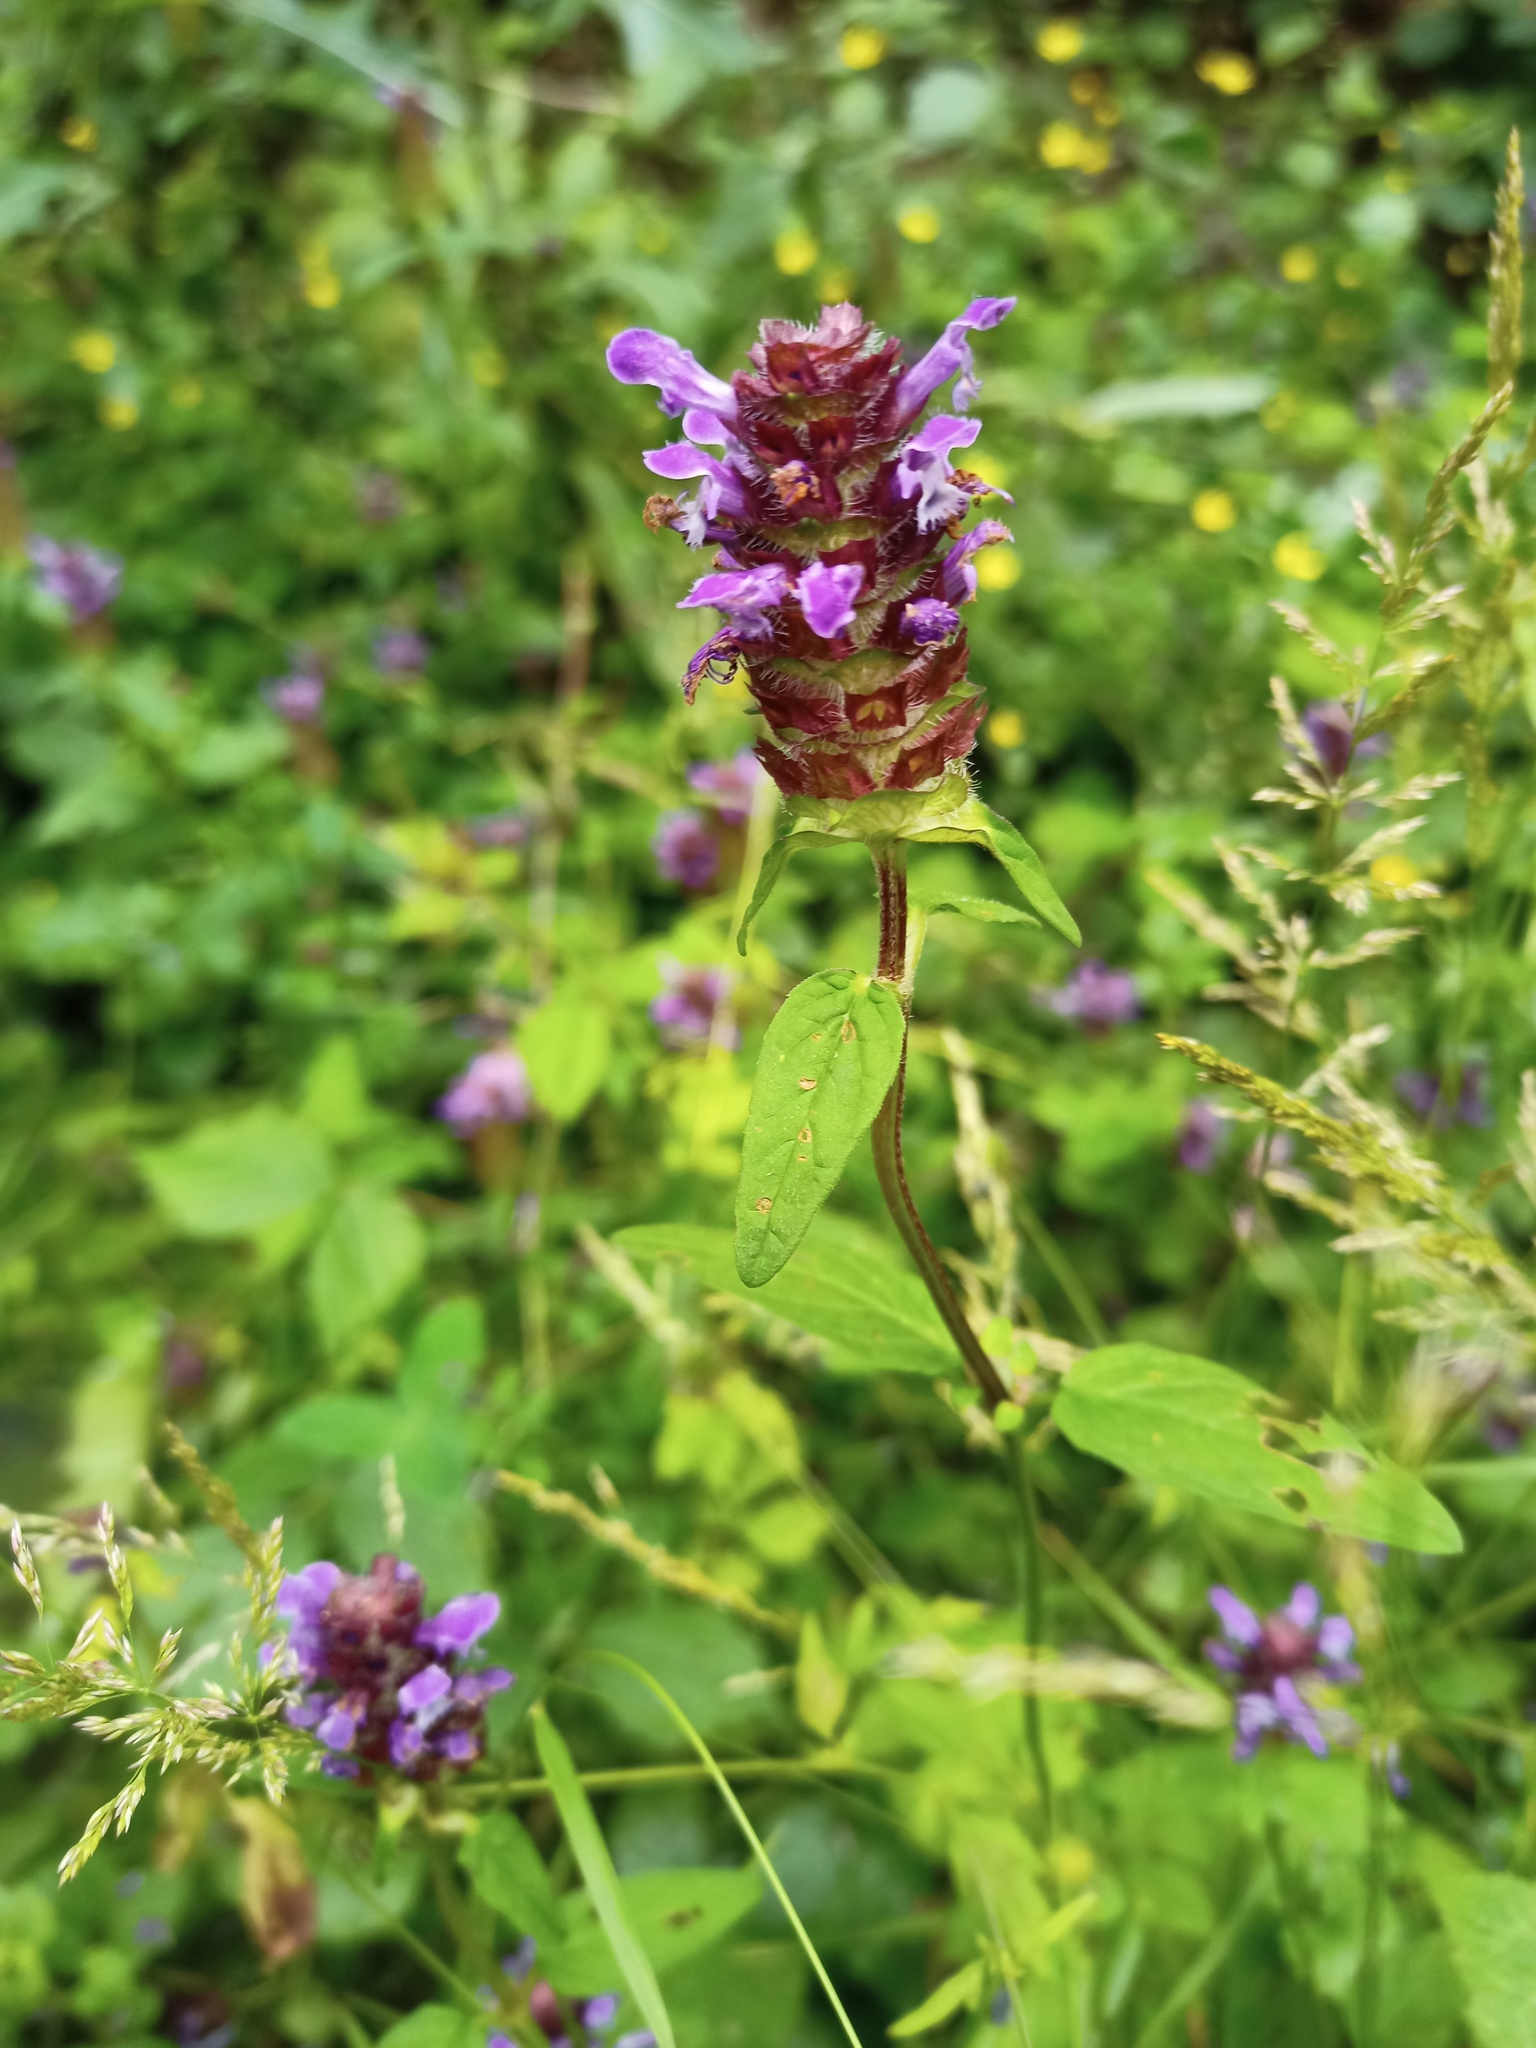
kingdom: Plantae
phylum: Tracheophyta
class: Magnoliopsida
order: Lamiales
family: Lamiaceae
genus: Prunella
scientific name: Prunella vulgaris
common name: Heal-all
